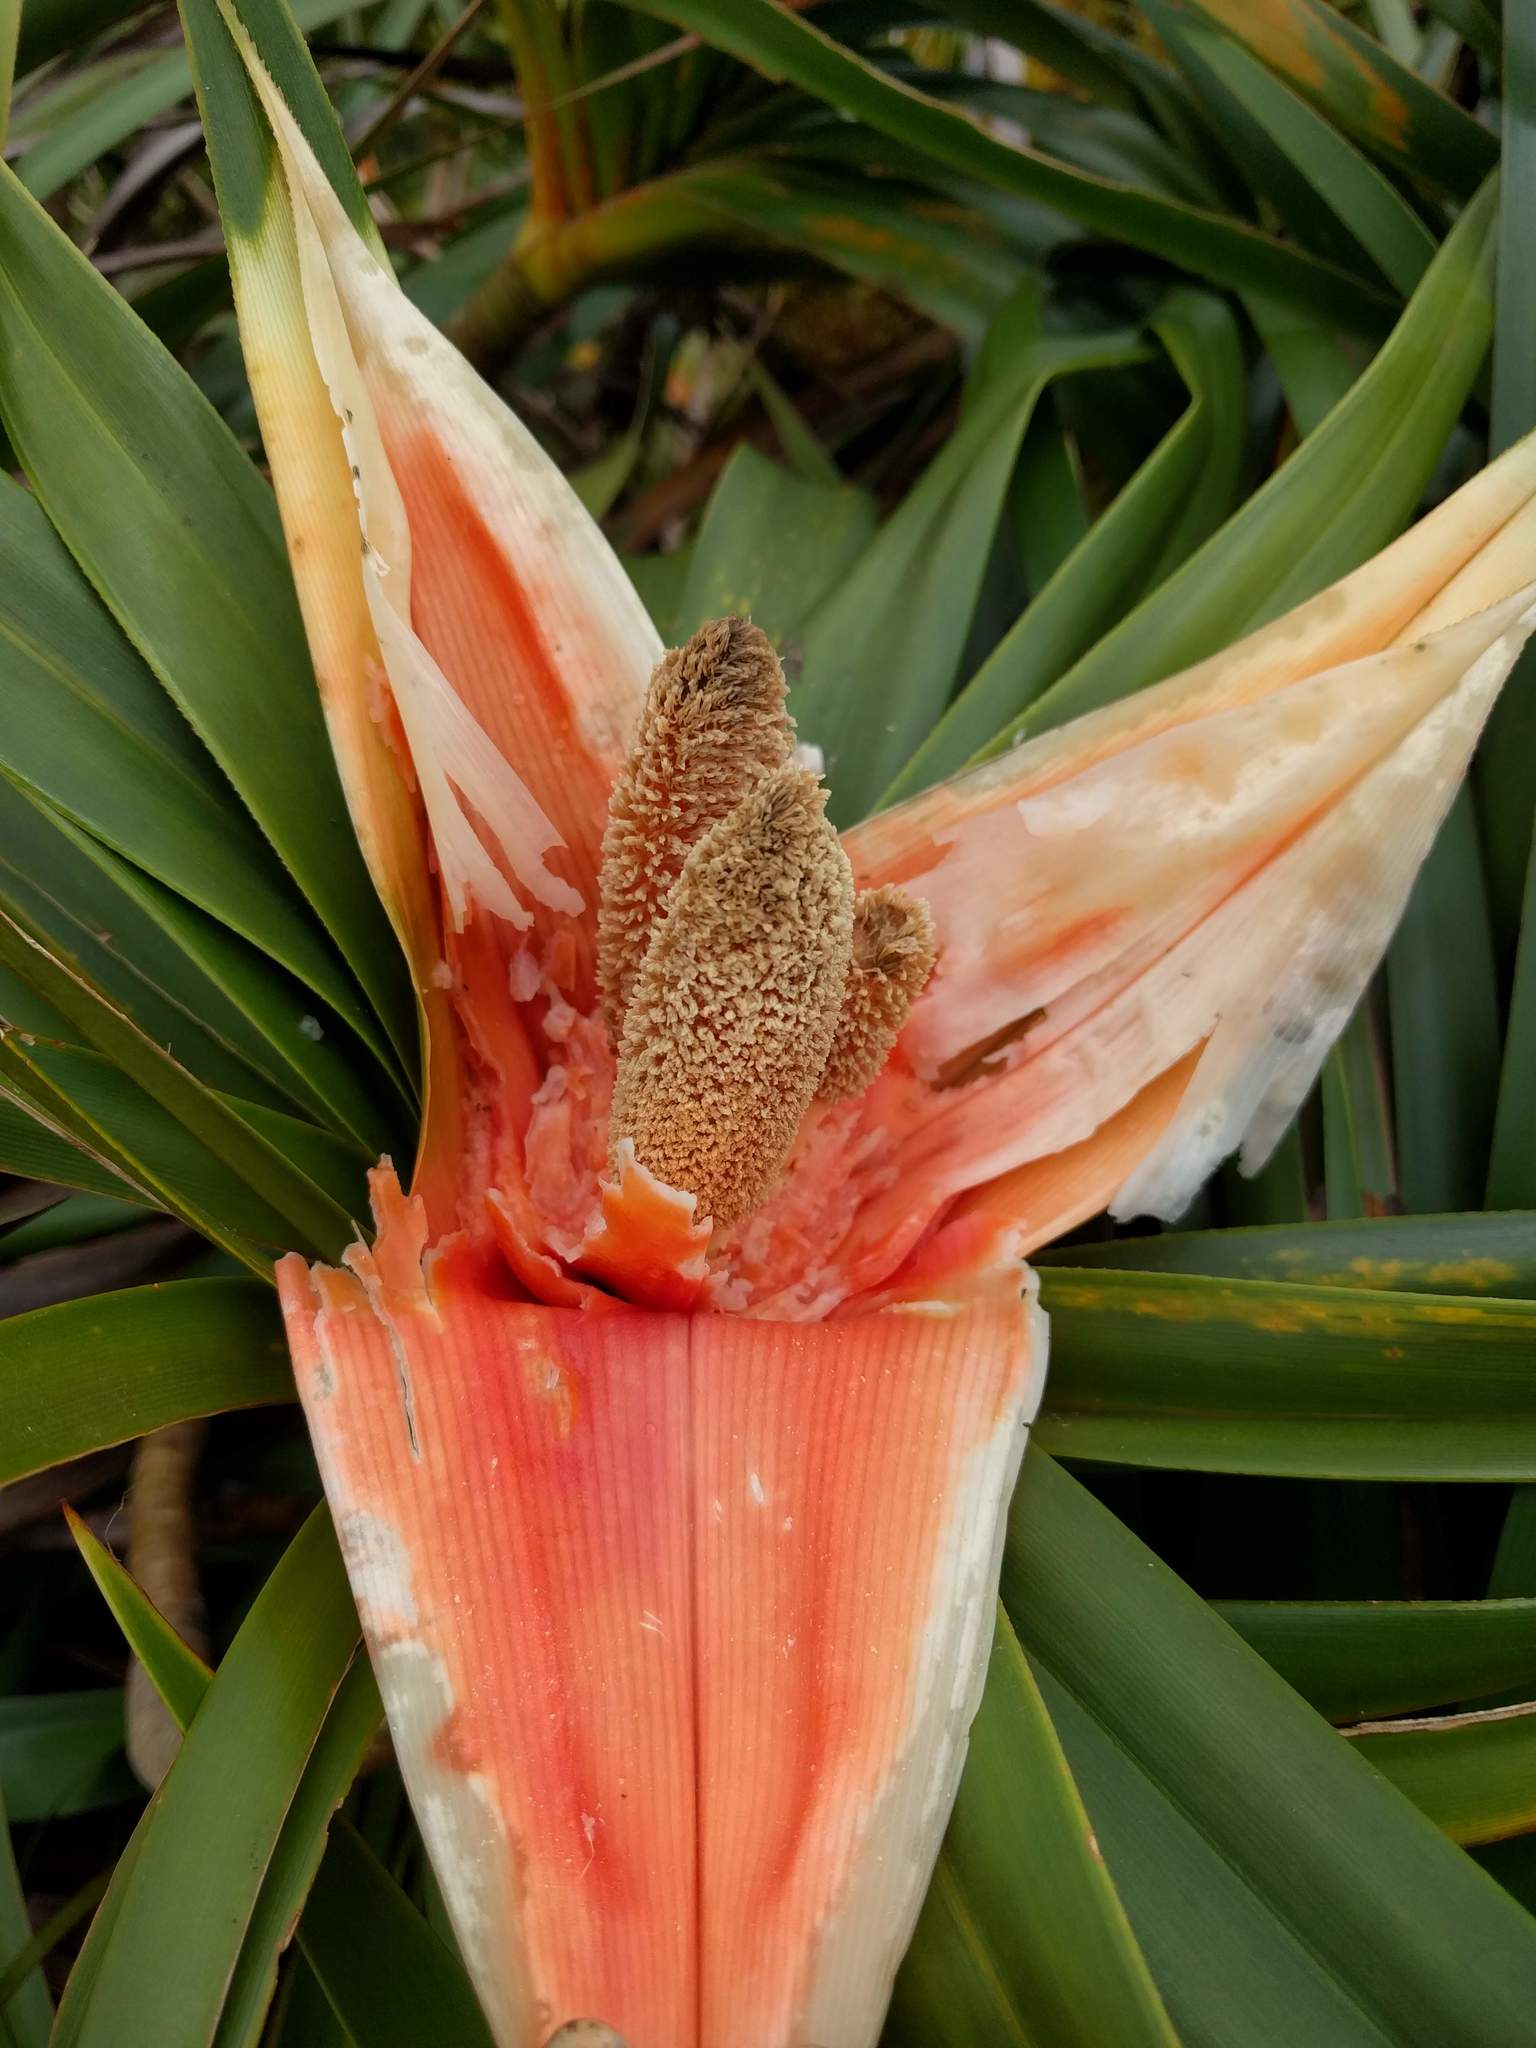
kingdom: Plantae
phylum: Tracheophyta
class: Liliopsida
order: Pandanales
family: Pandanaceae
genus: Freycinetia
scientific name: Freycinetia arborea
